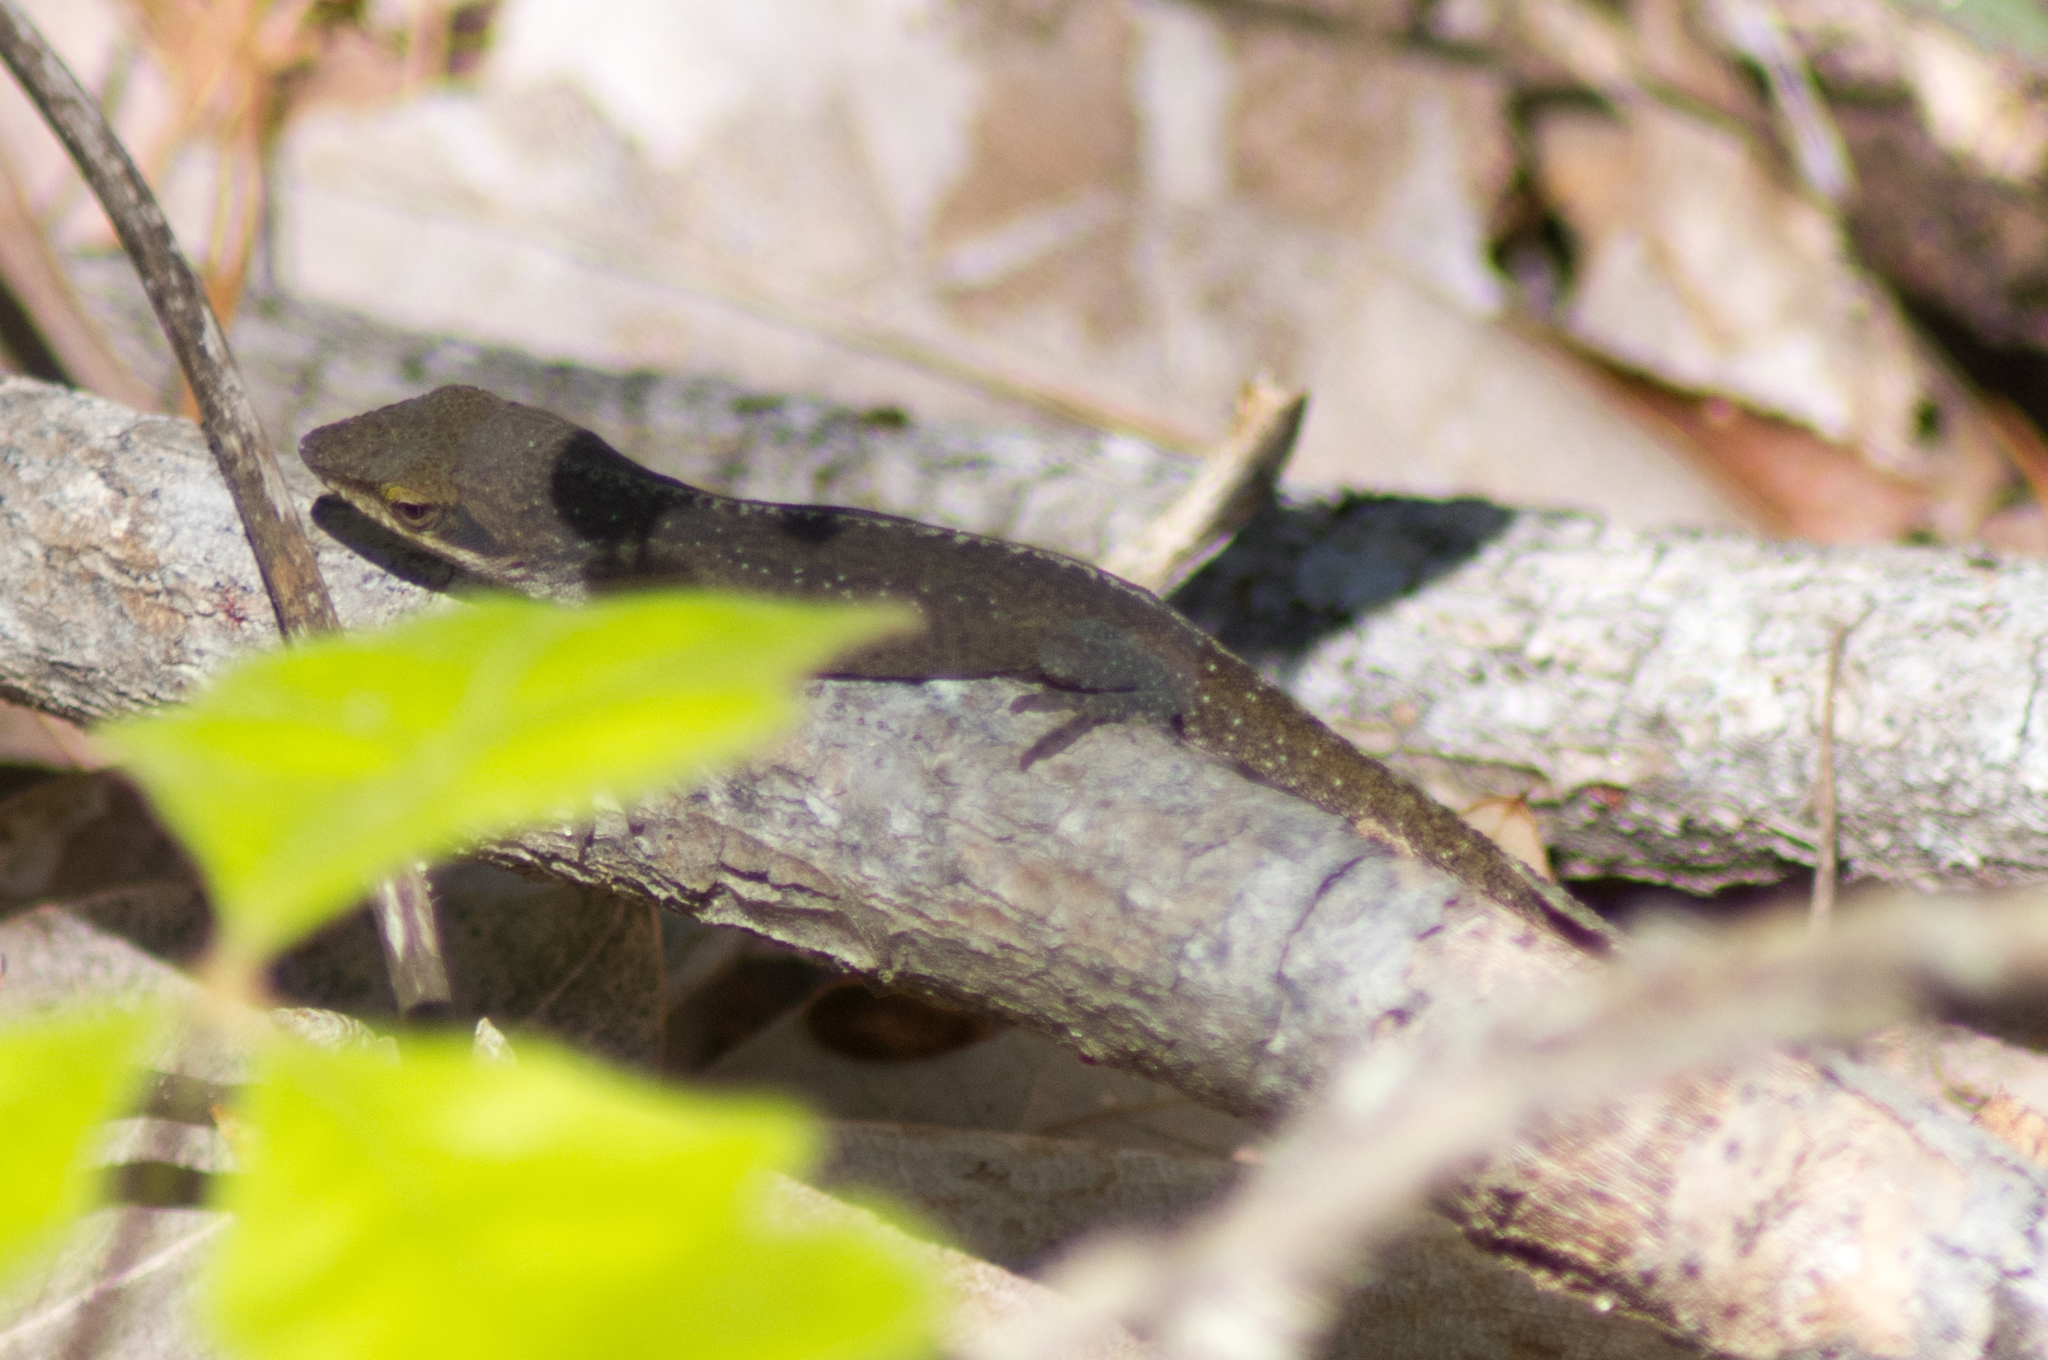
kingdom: Animalia
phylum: Chordata
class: Squamata
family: Dactyloidae
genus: Anolis
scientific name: Anolis carolinensis
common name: Green anole
